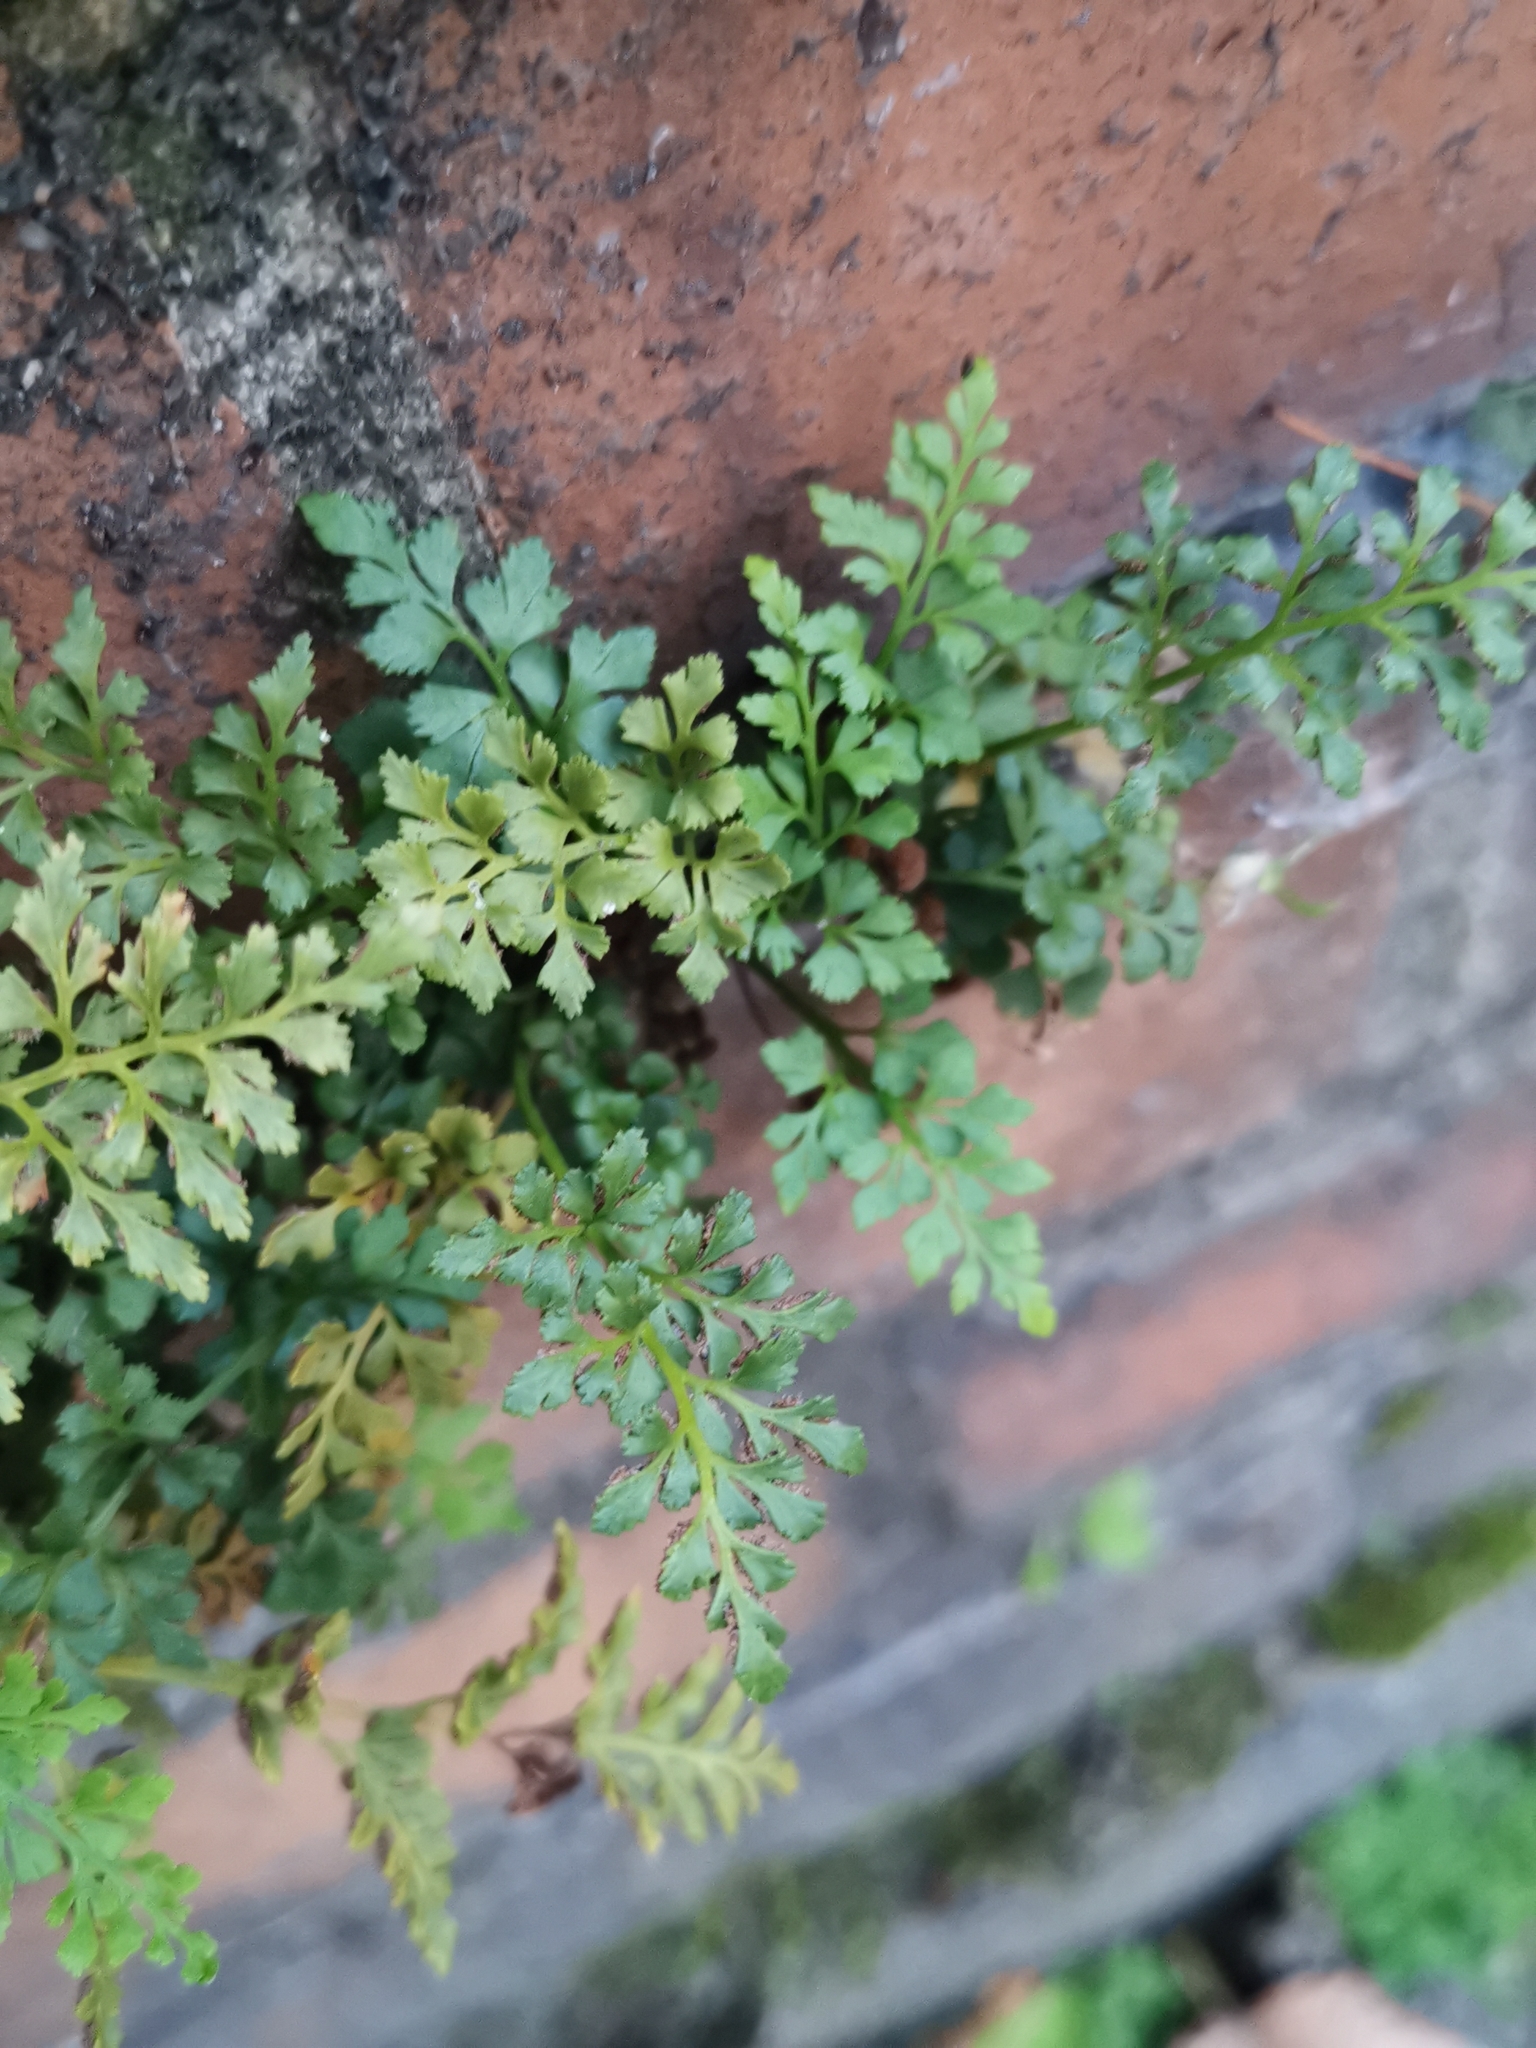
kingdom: Plantae
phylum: Tracheophyta
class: Polypodiopsida
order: Polypodiales
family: Aspleniaceae
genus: Asplenium
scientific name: Asplenium ruta-muraria
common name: Wall-rue
